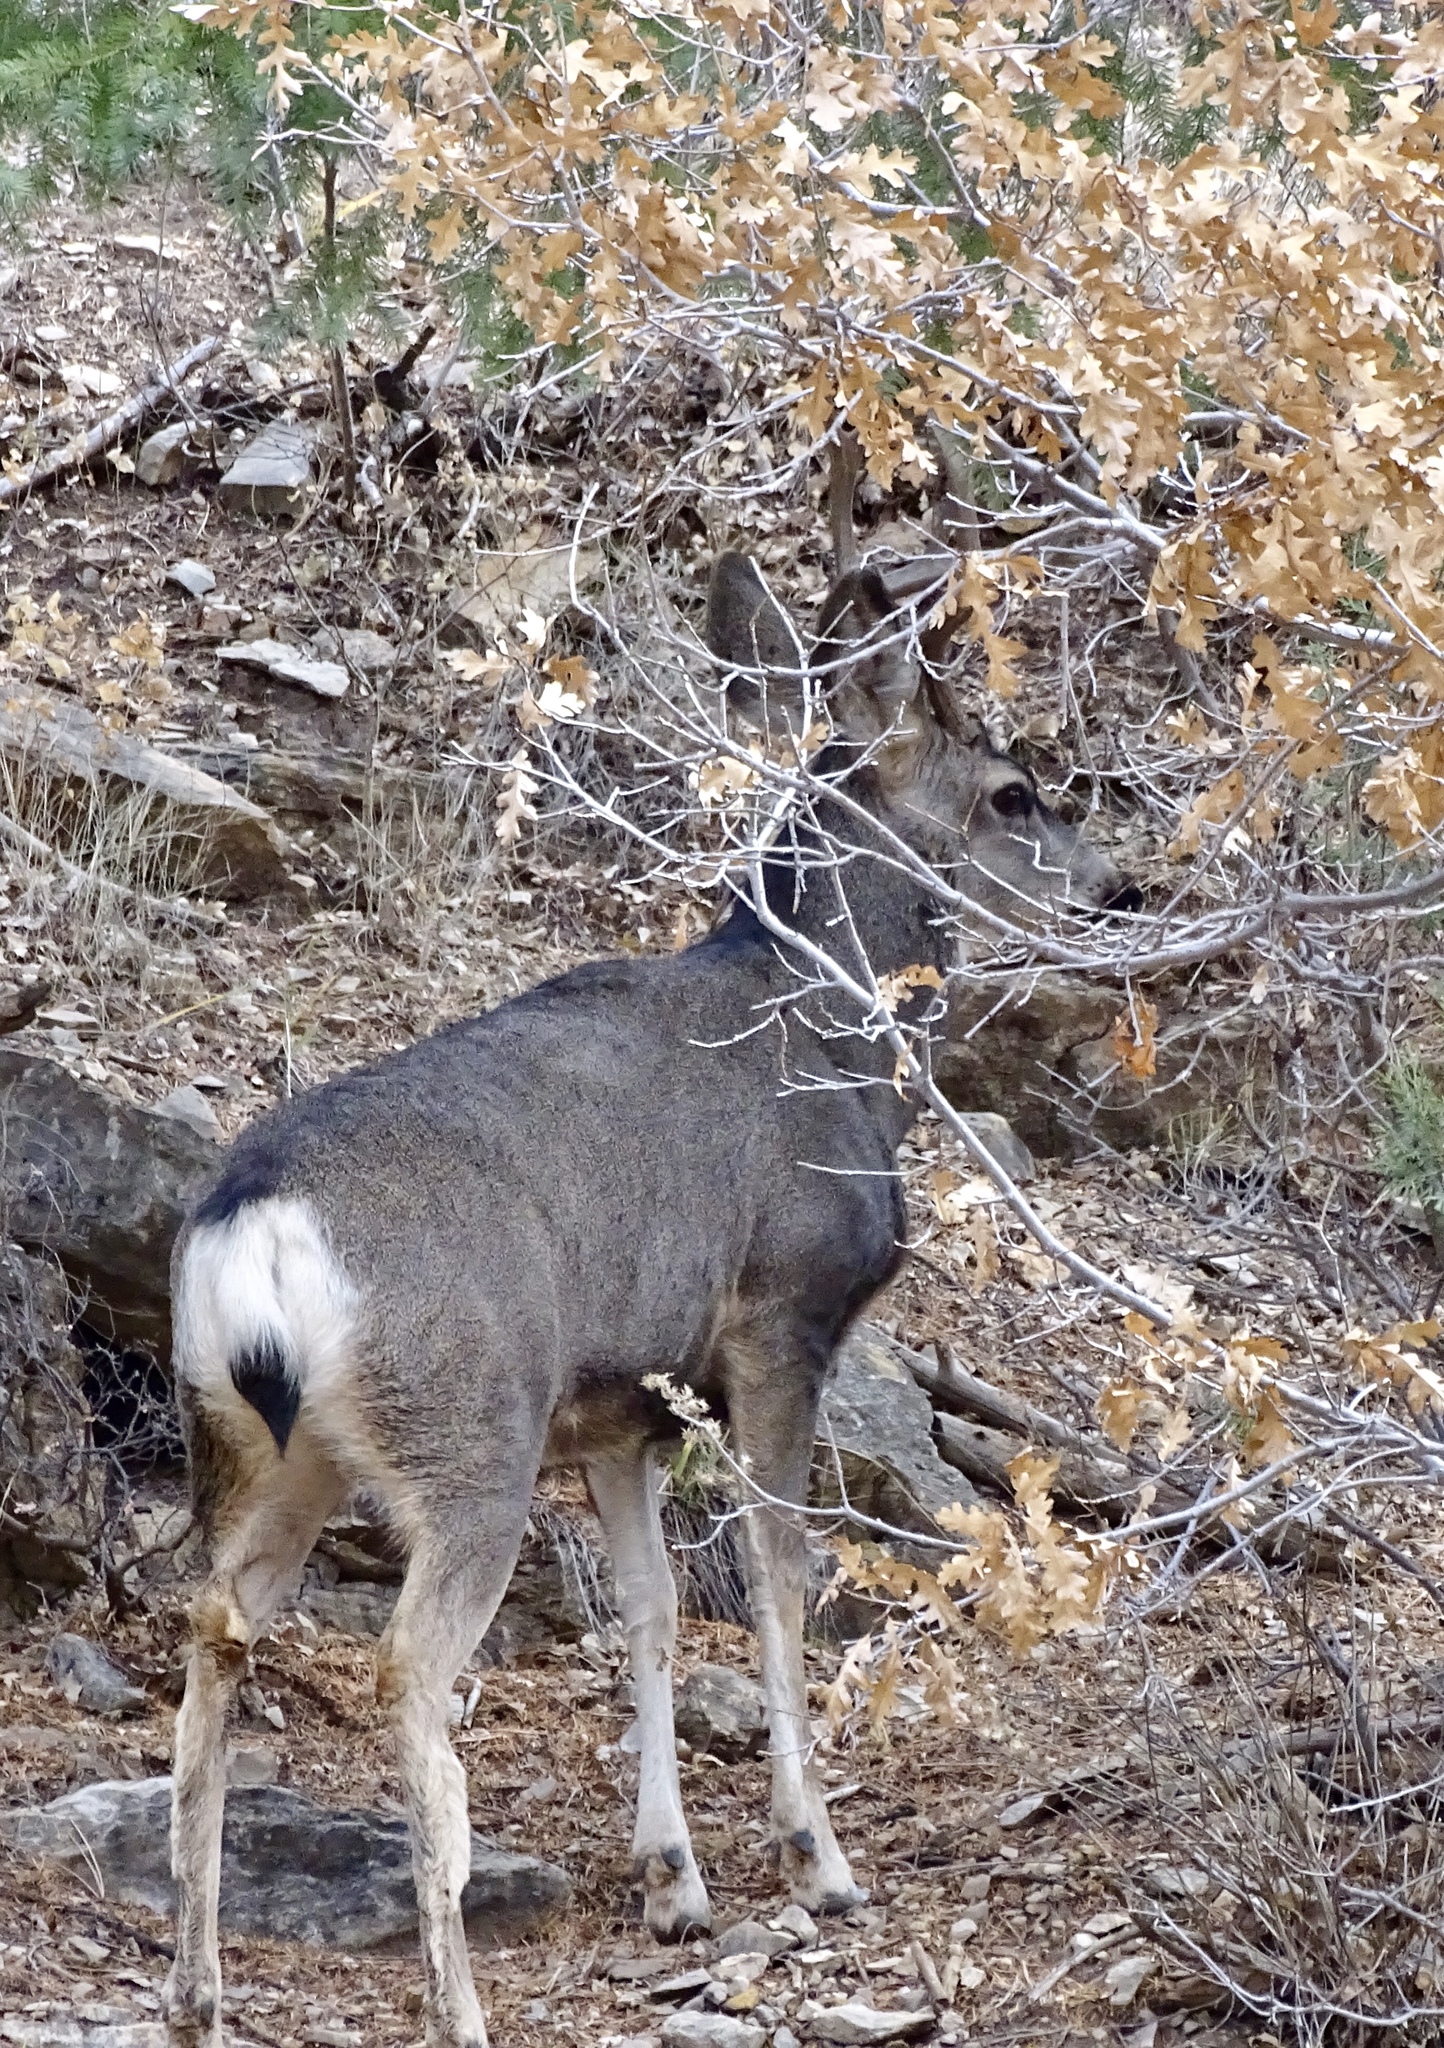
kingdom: Animalia
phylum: Chordata
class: Mammalia
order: Artiodactyla
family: Cervidae
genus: Odocoileus
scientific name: Odocoileus hemionus
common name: Mule deer
